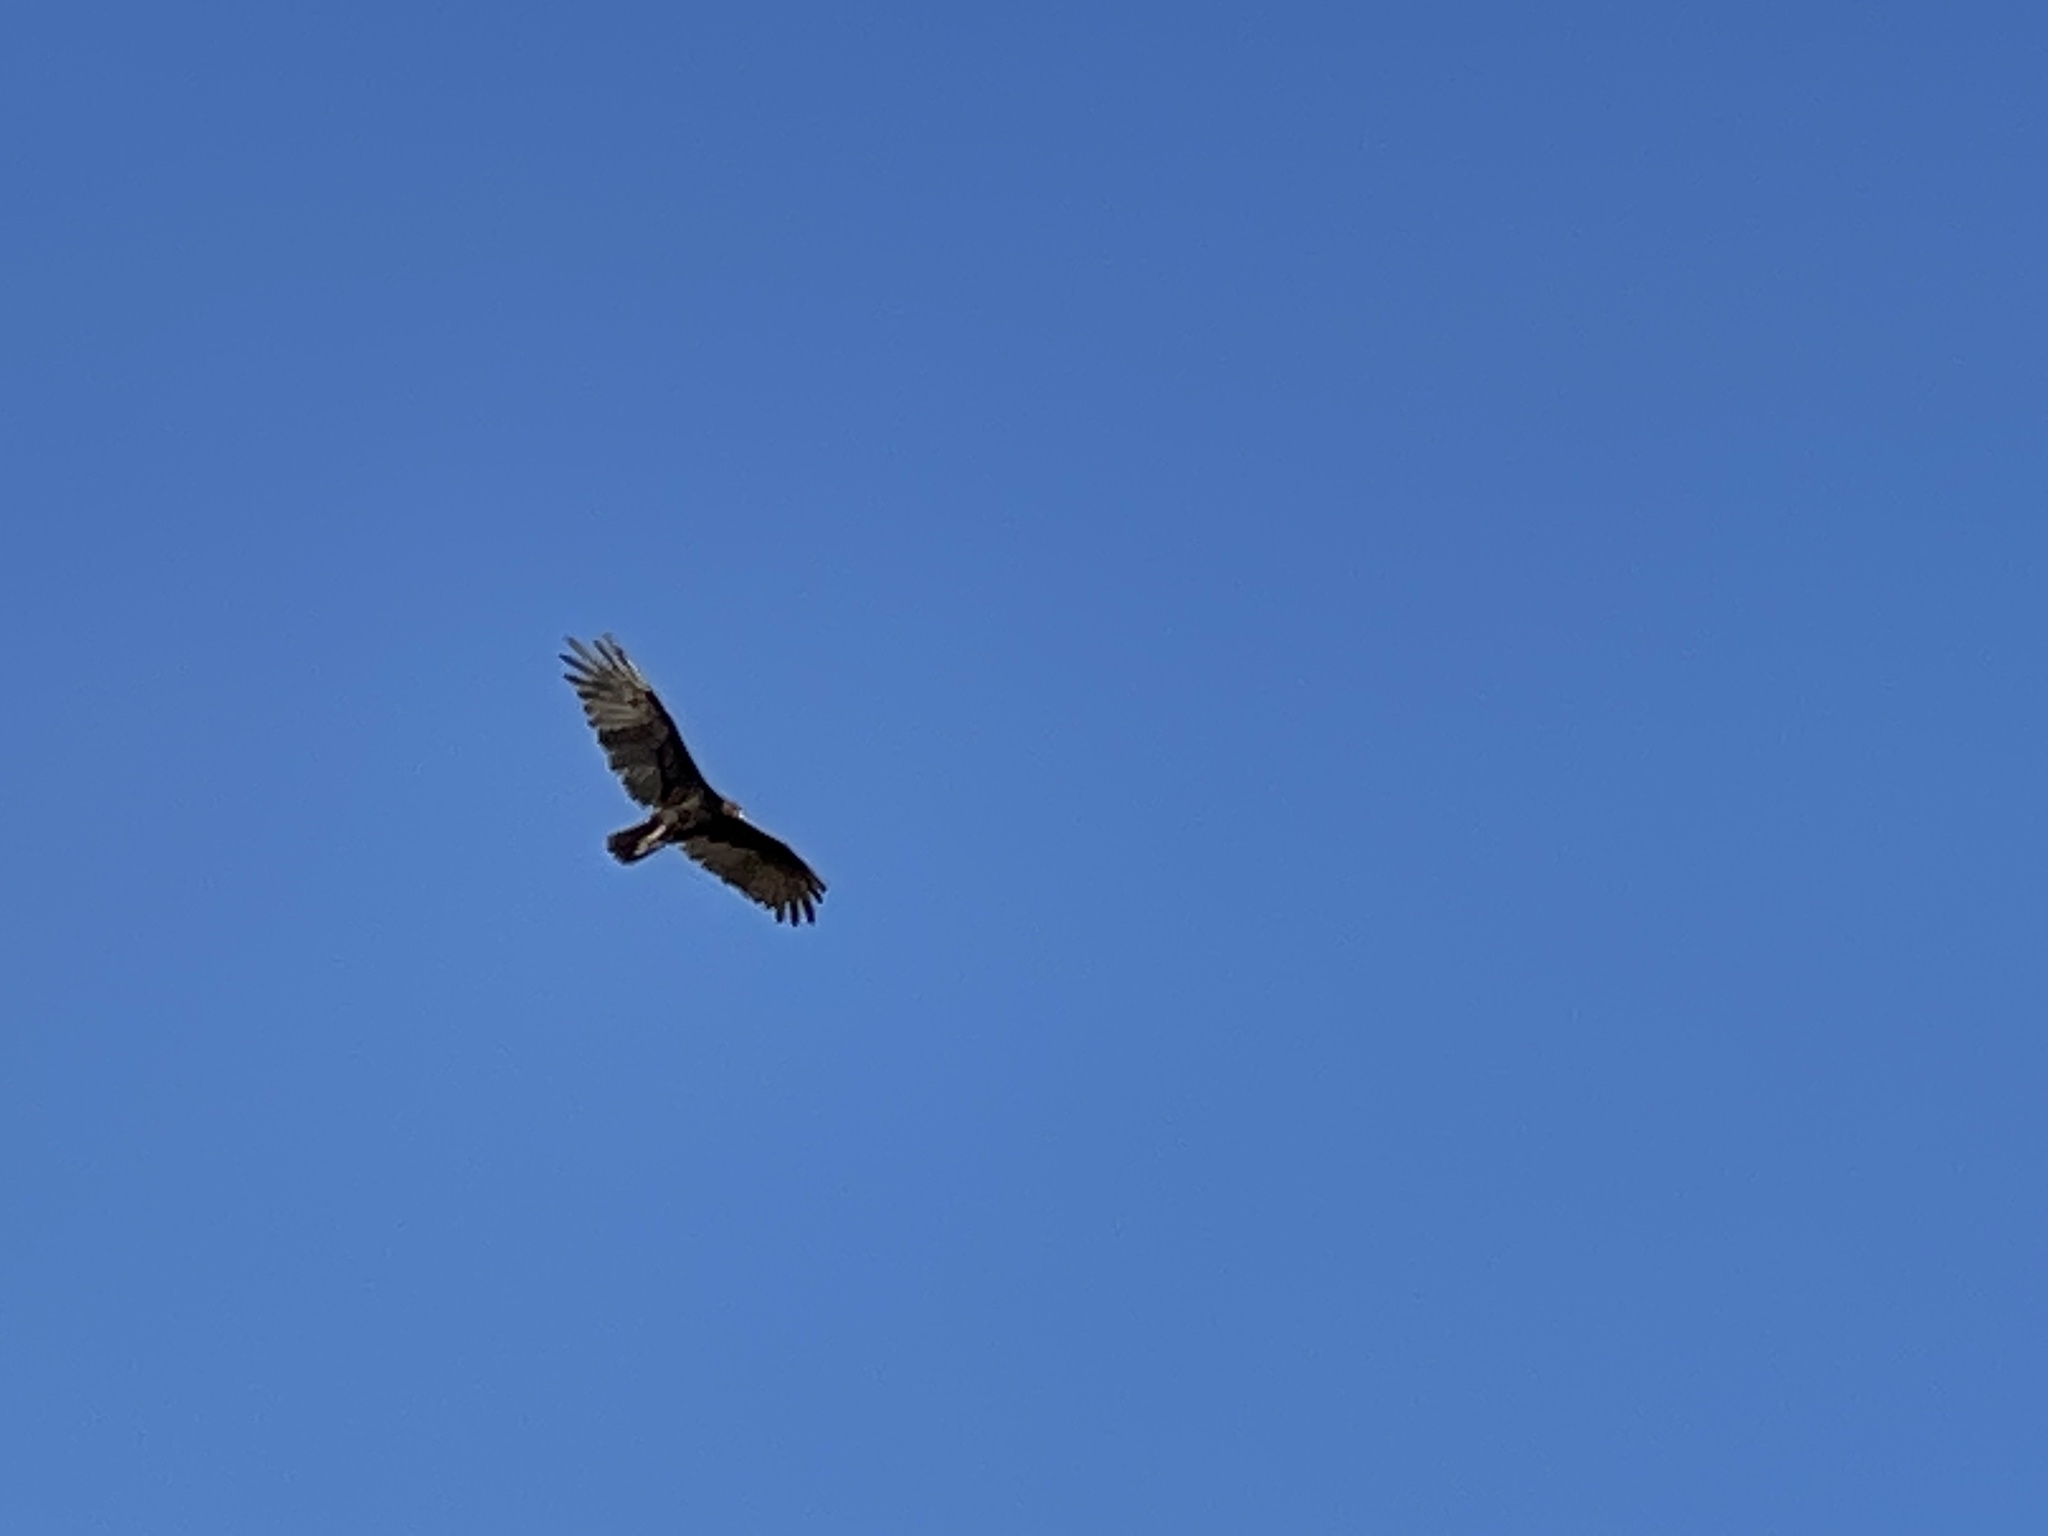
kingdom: Animalia
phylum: Chordata
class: Aves
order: Accipitriformes
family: Cathartidae
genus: Cathartes
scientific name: Cathartes aura
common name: Turkey vulture
